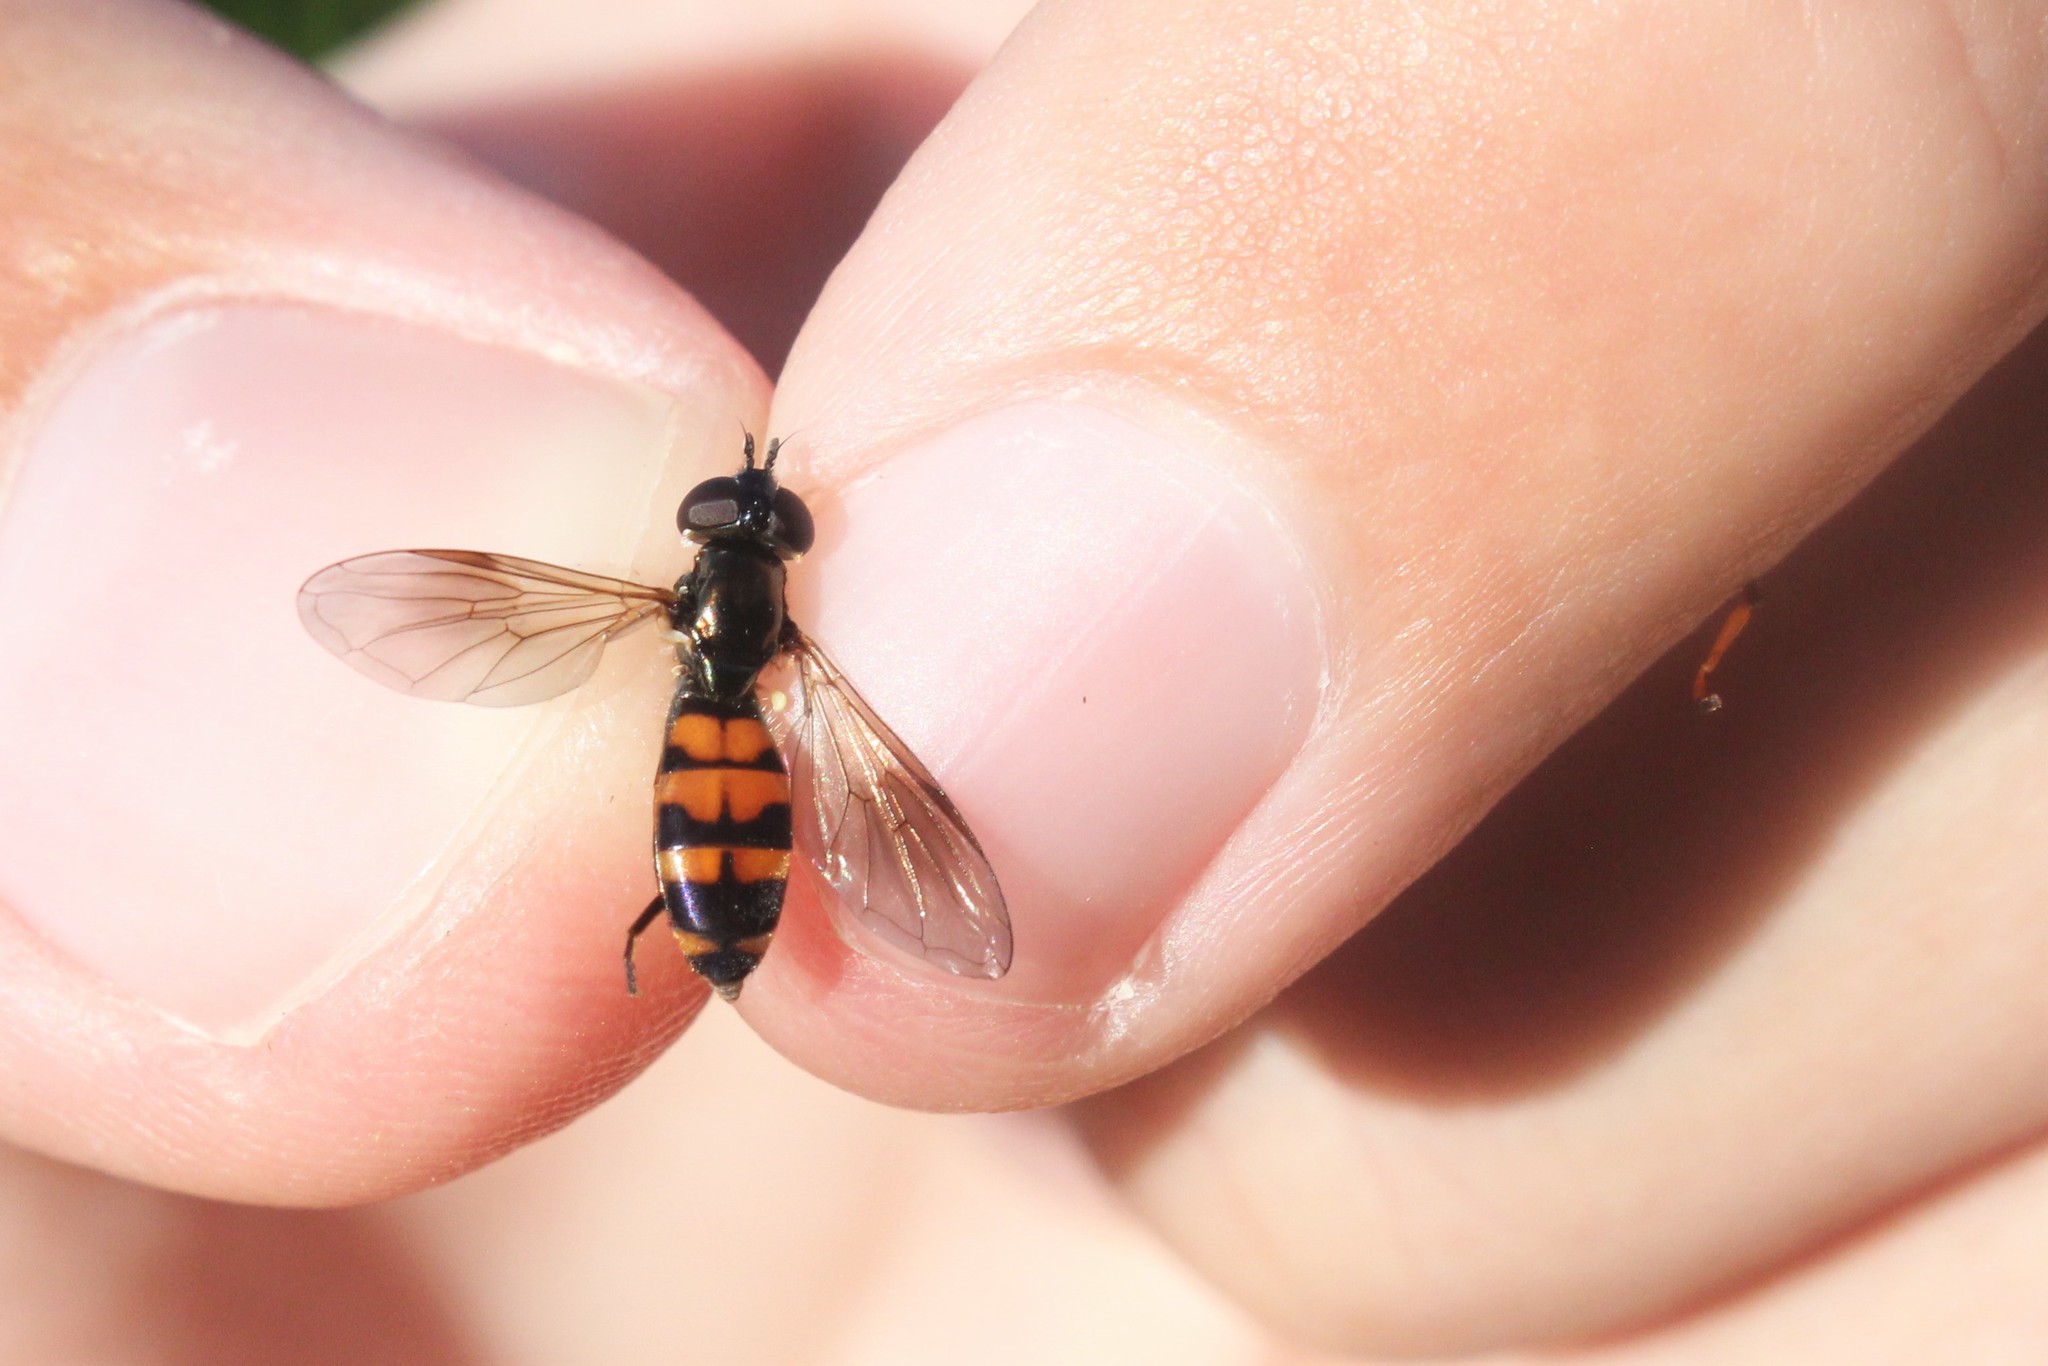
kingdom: Animalia
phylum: Arthropoda
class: Insecta
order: Diptera
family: Syrphidae
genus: Pyrophaena
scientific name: Pyrophaena granditarsa
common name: Hornhand sedgesitter
